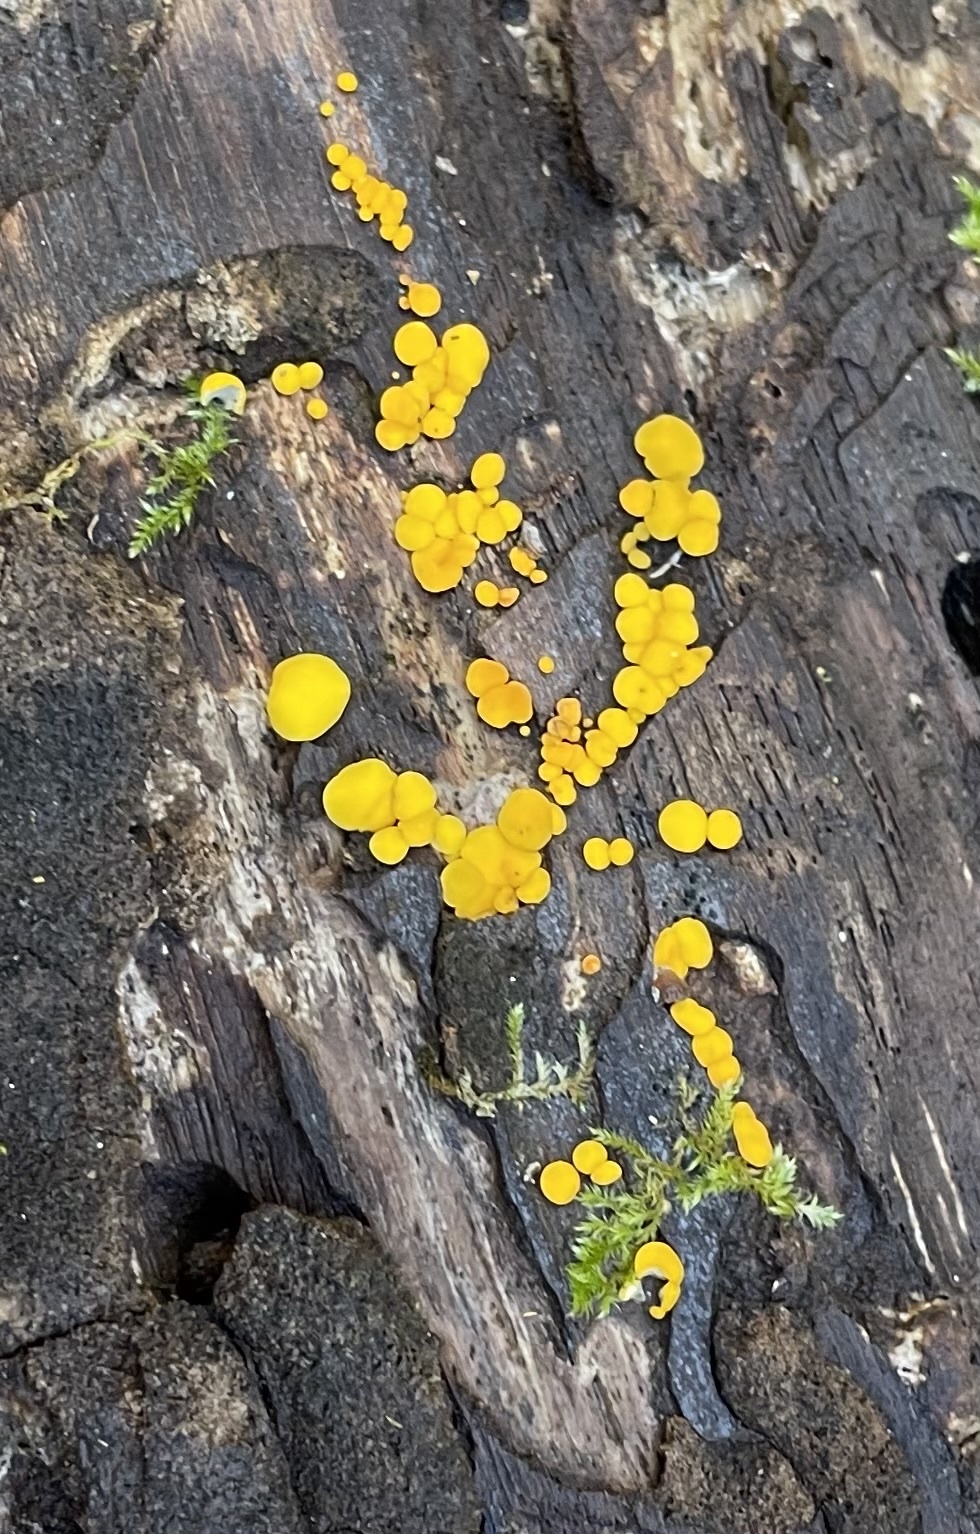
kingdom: Fungi
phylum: Ascomycota
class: Leotiomycetes
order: Helotiales
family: Pezizellaceae
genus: Calycina
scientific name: Calycina citrina
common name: Yellow fairy cups
